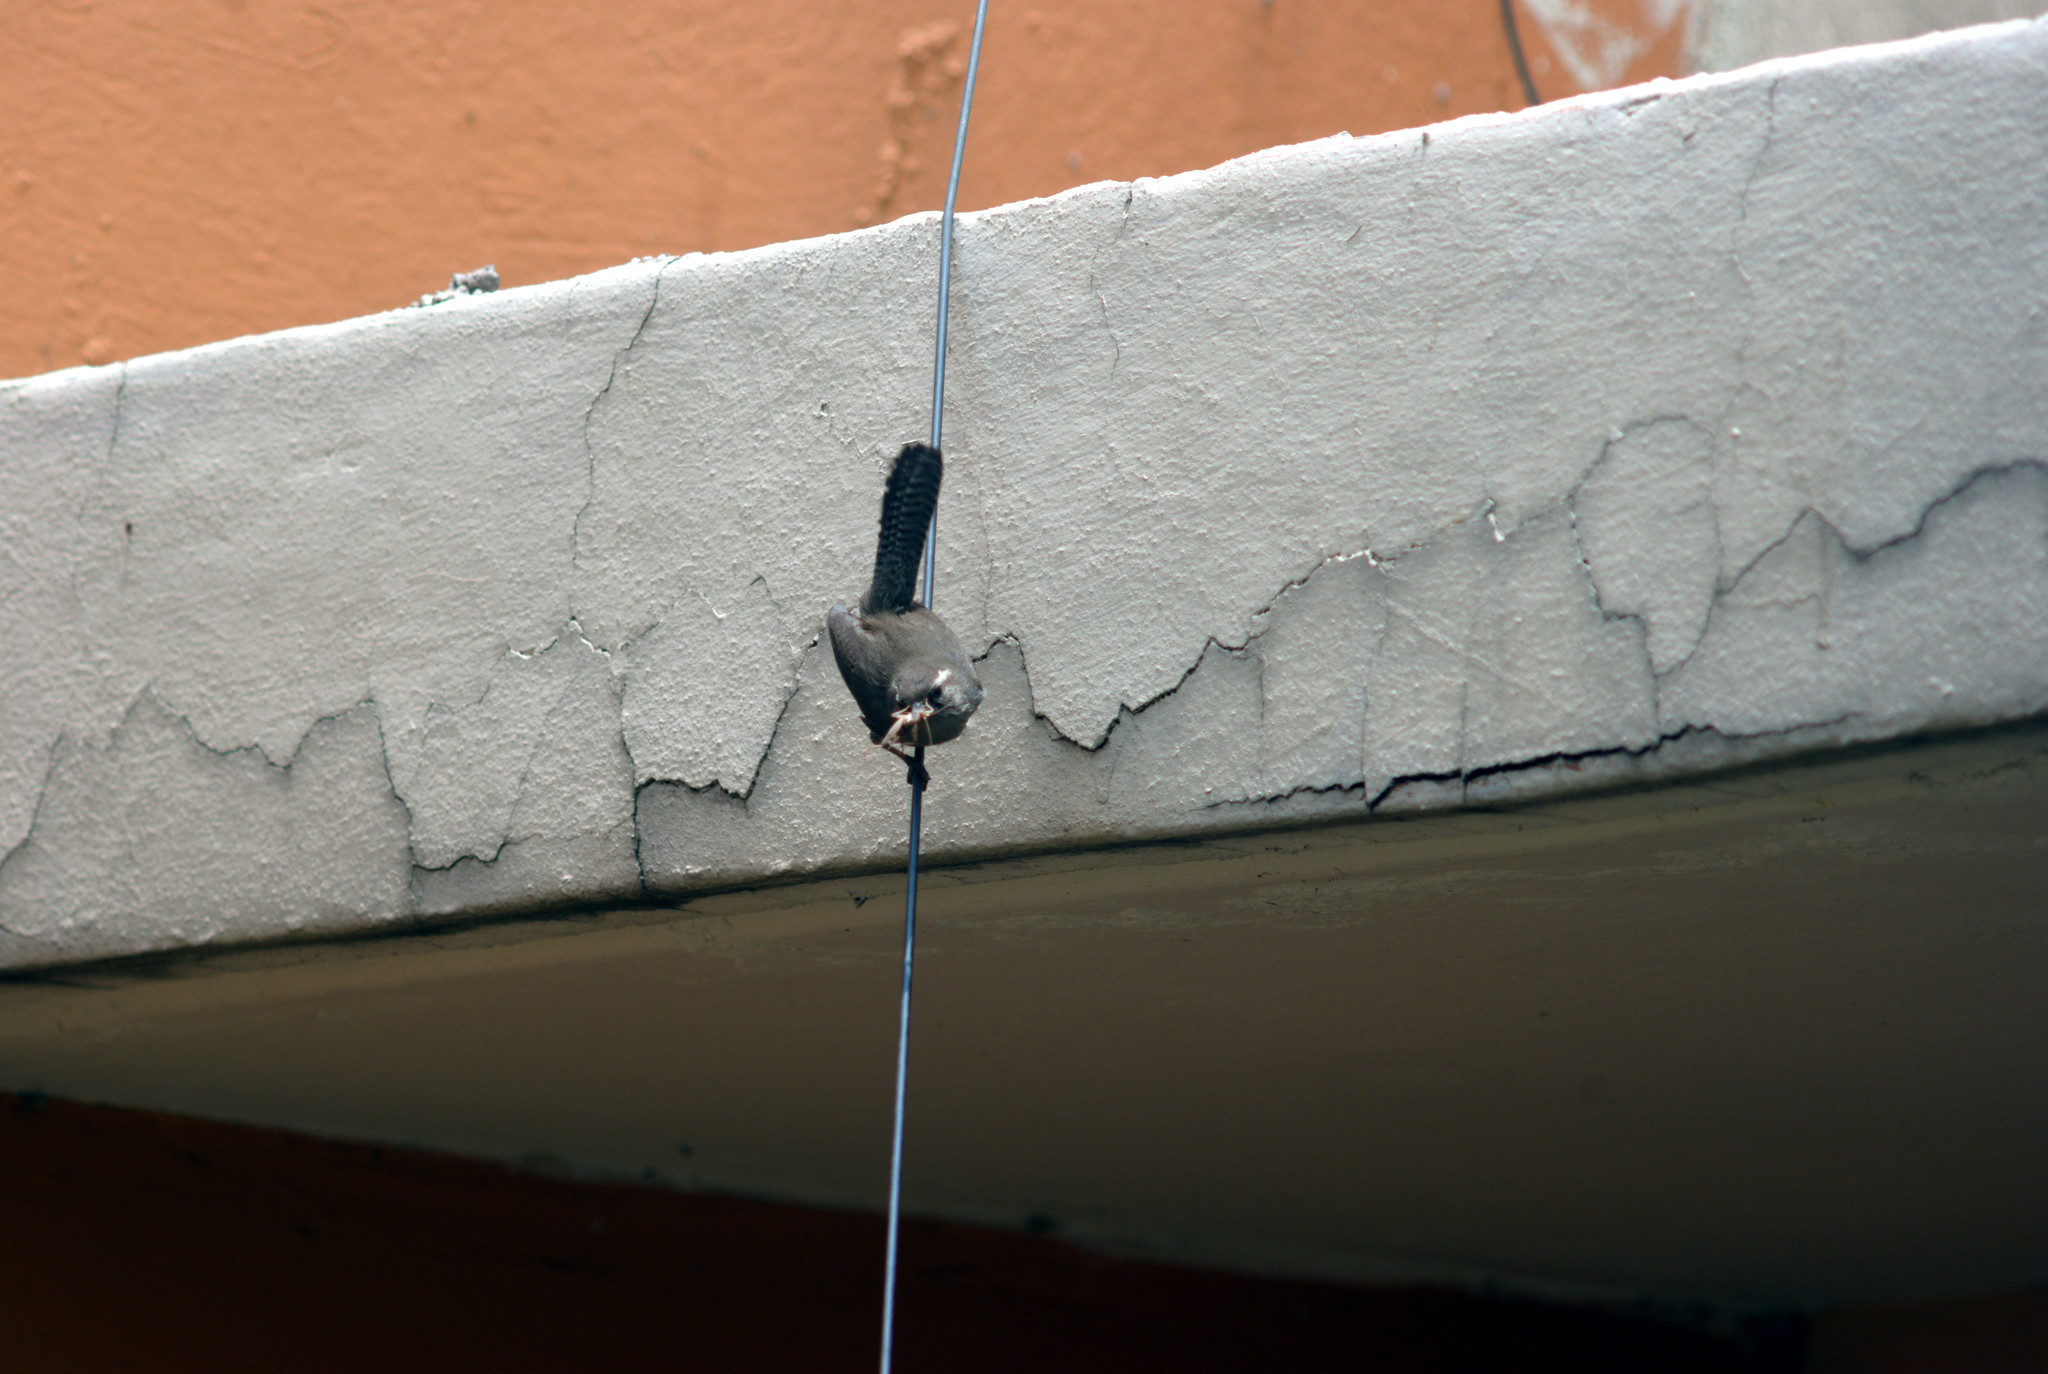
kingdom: Animalia
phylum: Chordata
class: Aves
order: Passeriformes
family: Troglodytidae
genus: Thryomanes
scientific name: Thryomanes bewickii
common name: Bewick's wren
